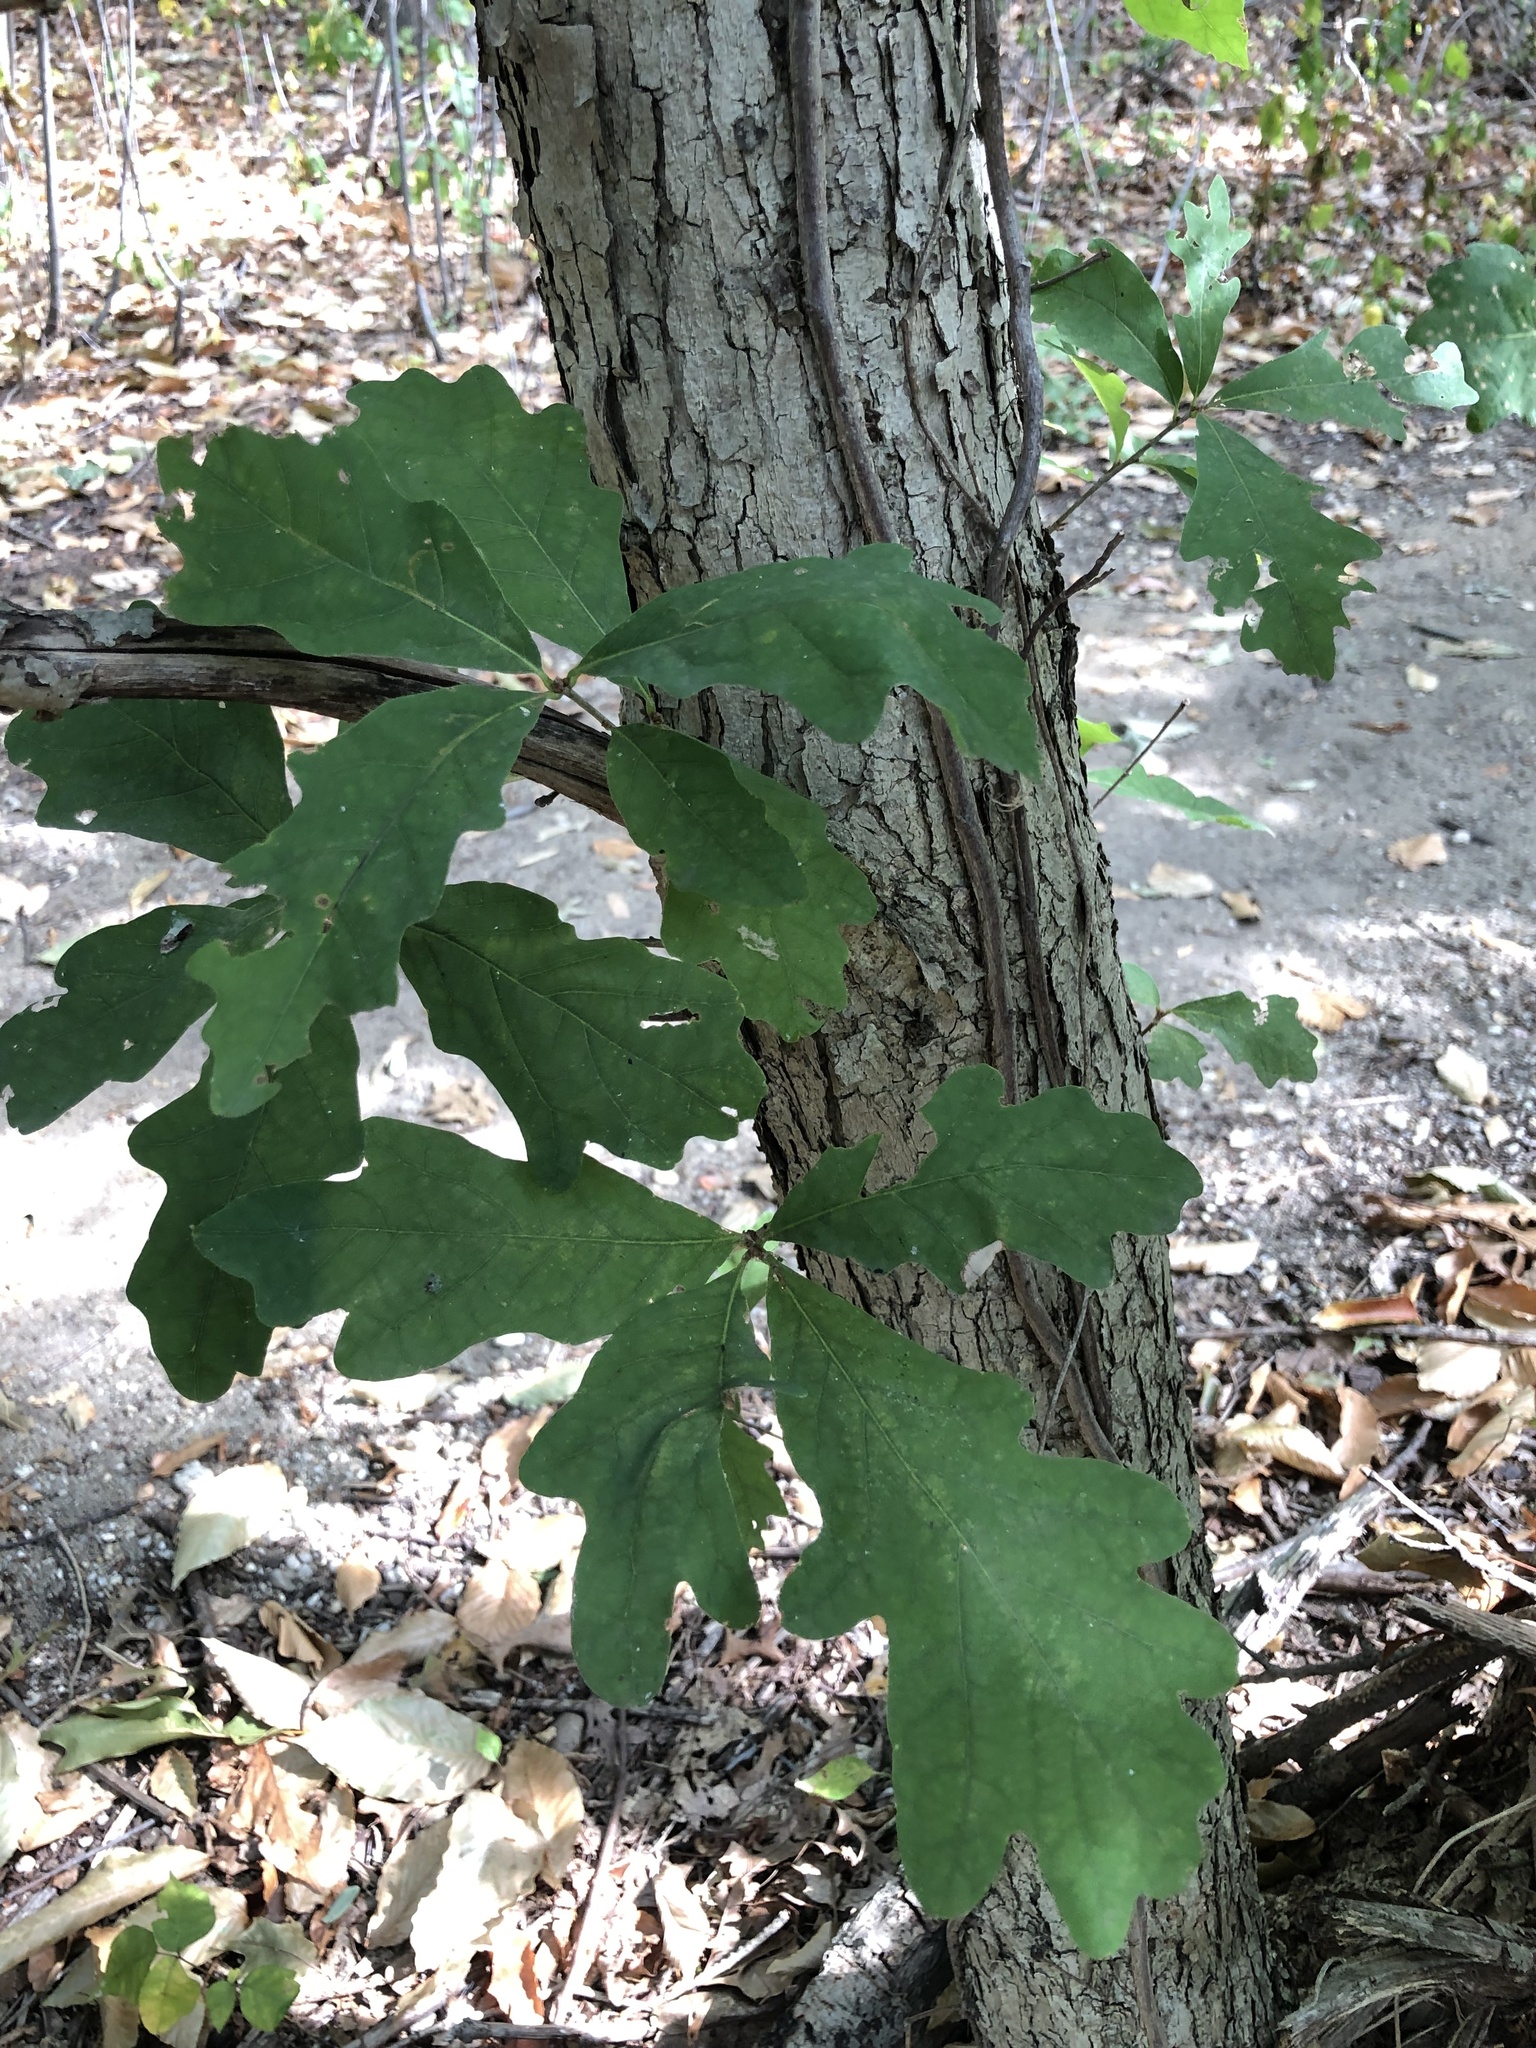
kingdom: Plantae
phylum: Tracheophyta
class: Magnoliopsida
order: Fagales
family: Fagaceae
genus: Quercus
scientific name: Quercus alba
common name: White oak
